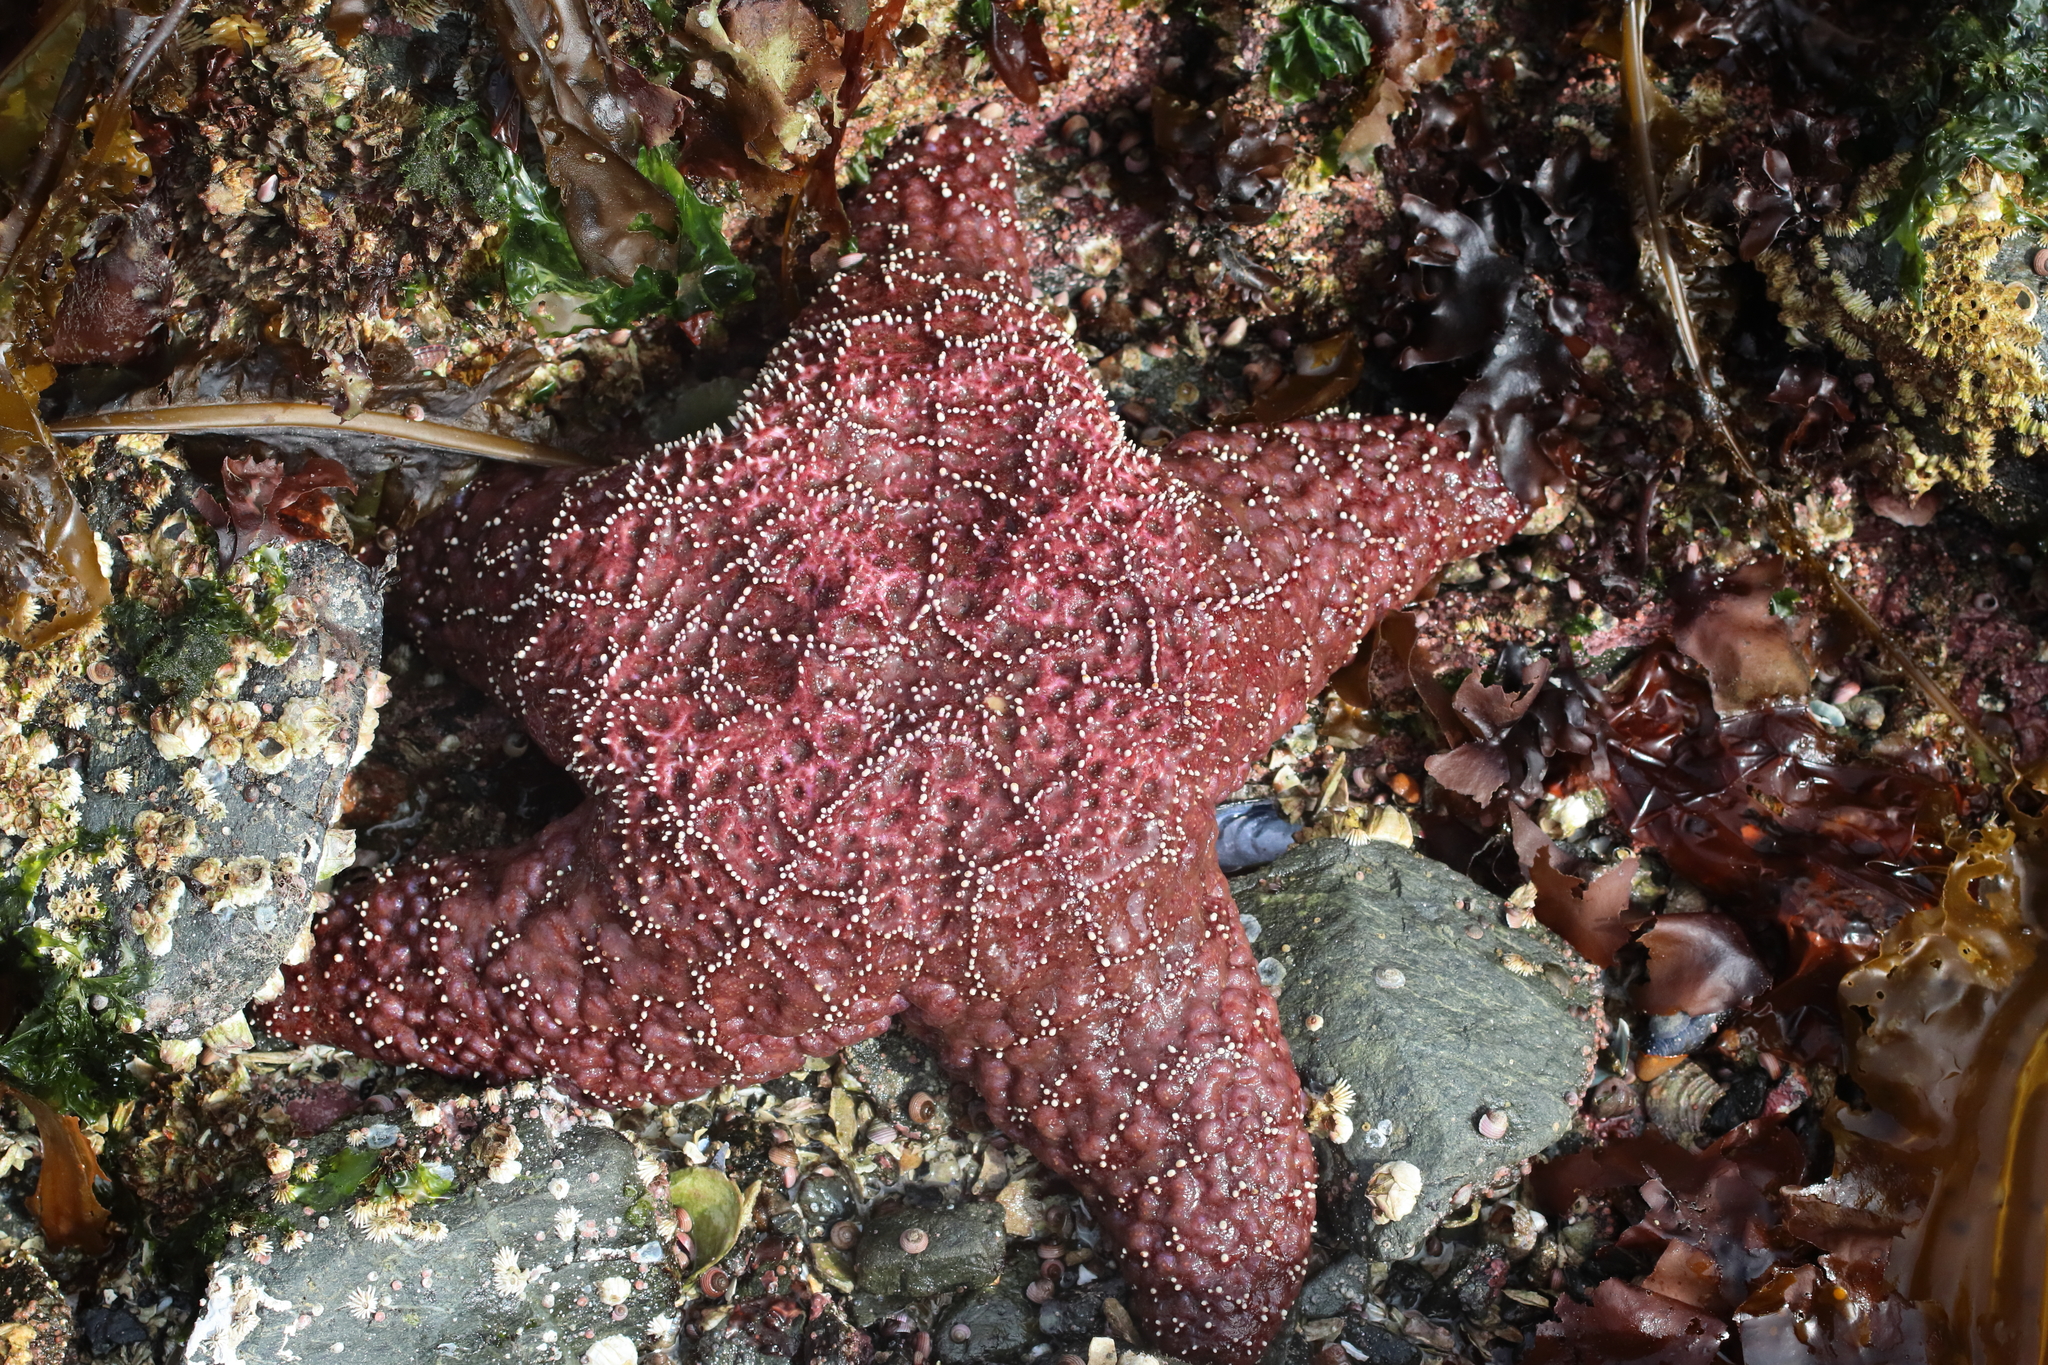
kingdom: Animalia
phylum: Echinodermata
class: Asteroidea
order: Forcipulatida
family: Asteriidae
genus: Pisaster
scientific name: Pisaster ochraceus
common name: Ochre stars
